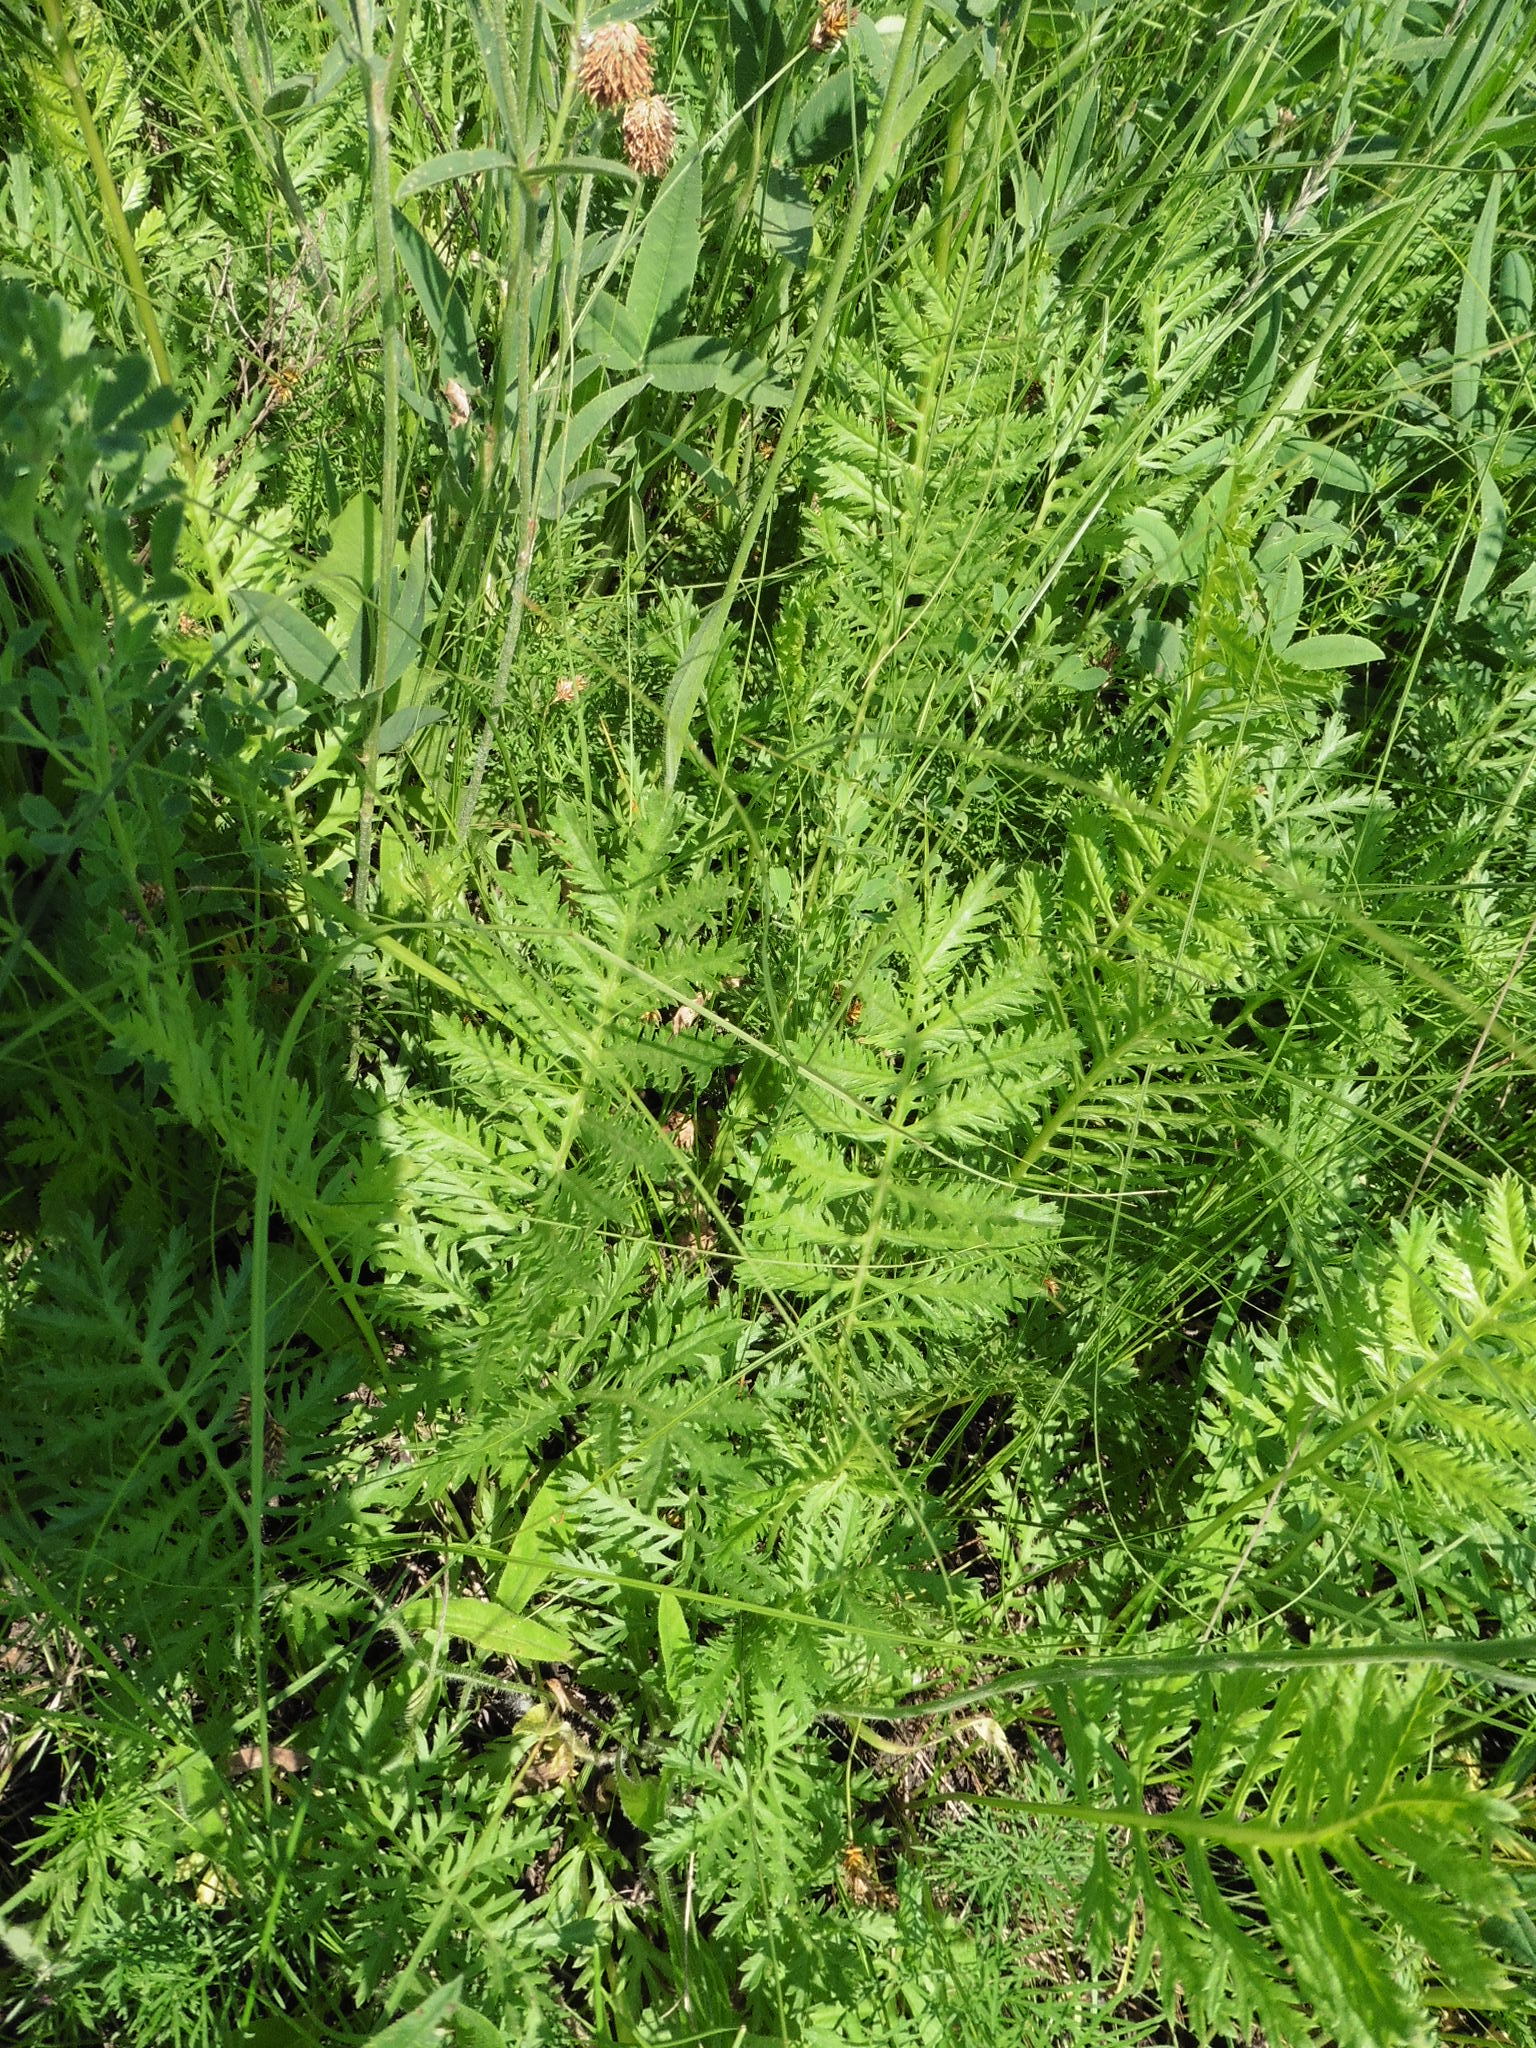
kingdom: Plantae
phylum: Tracheophyta
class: Magnoliopsida
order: Asterales
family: Asteraceae
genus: Artemisia
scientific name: Artemisia latifolia
